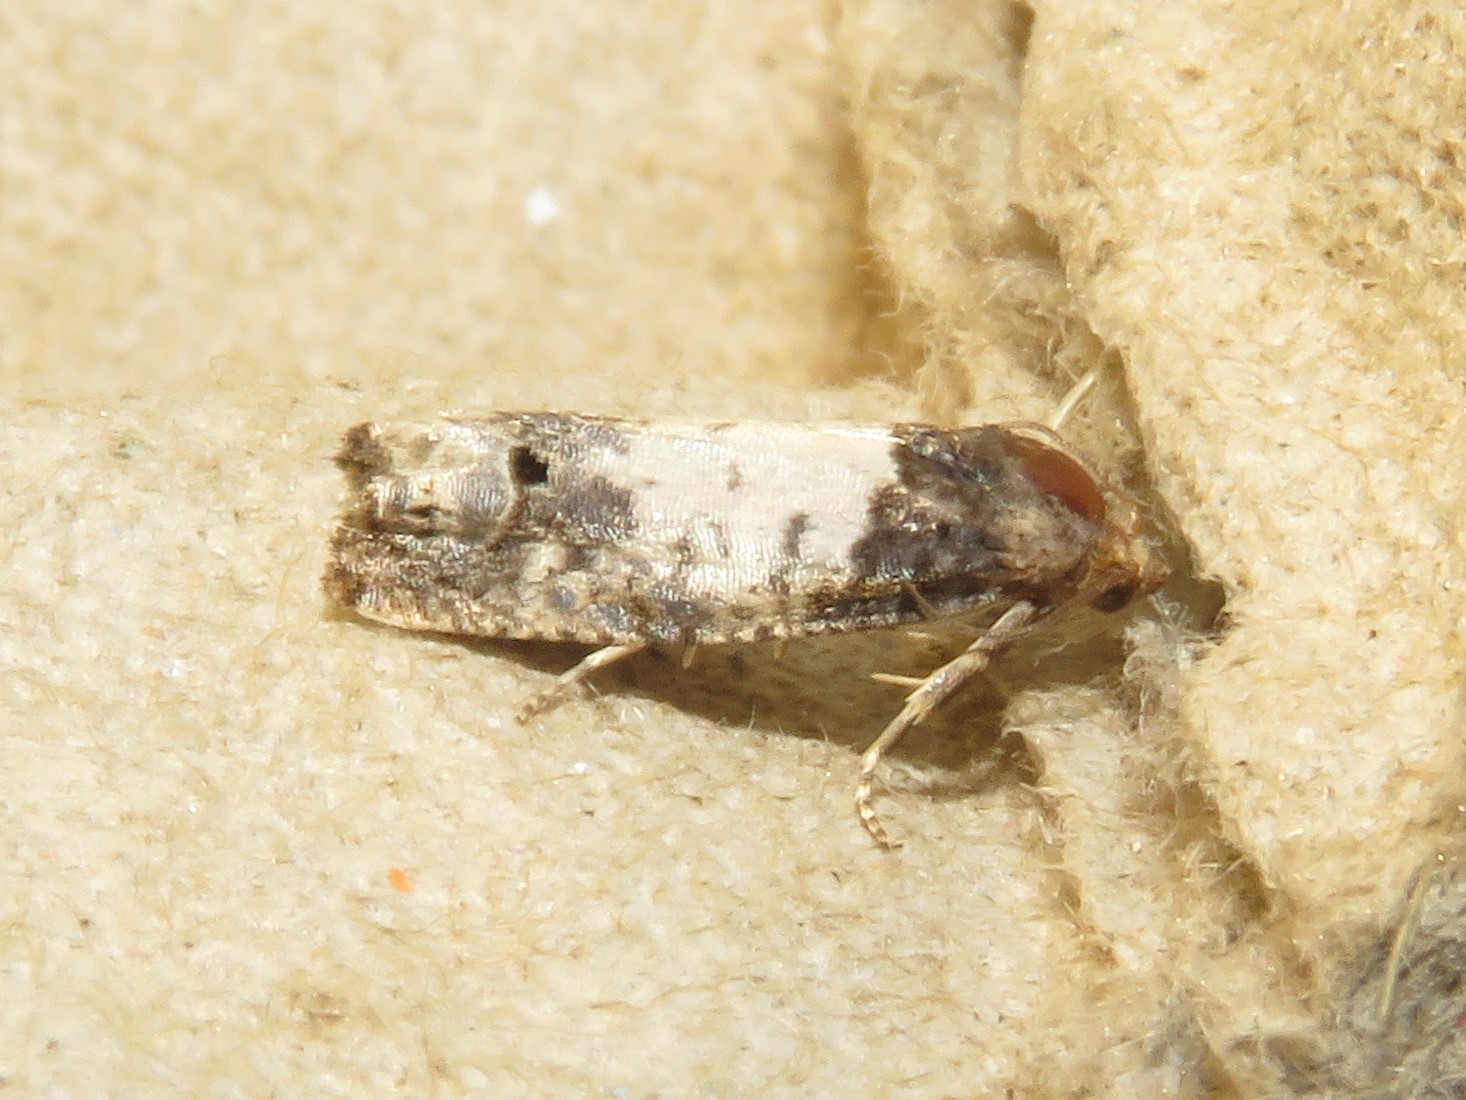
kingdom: Animalia
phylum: Arthropoda
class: Insecta
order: Lepidoptera
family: Tortricidae
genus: Epiblema
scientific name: Epiblema scudderiana
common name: Goldenrod gall moth
